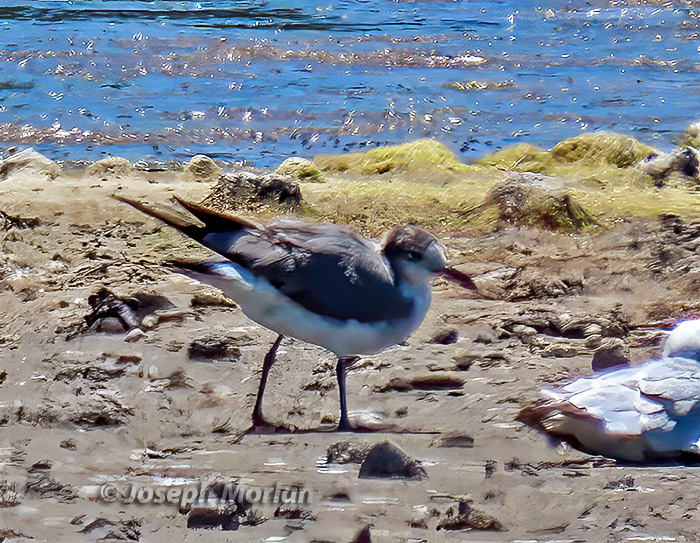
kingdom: Animalia
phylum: Chordata
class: Aves
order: Charadriiformes
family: Laridae
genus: Leucophaeus
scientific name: Leucophaeus atricilla
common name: Laughing gull
